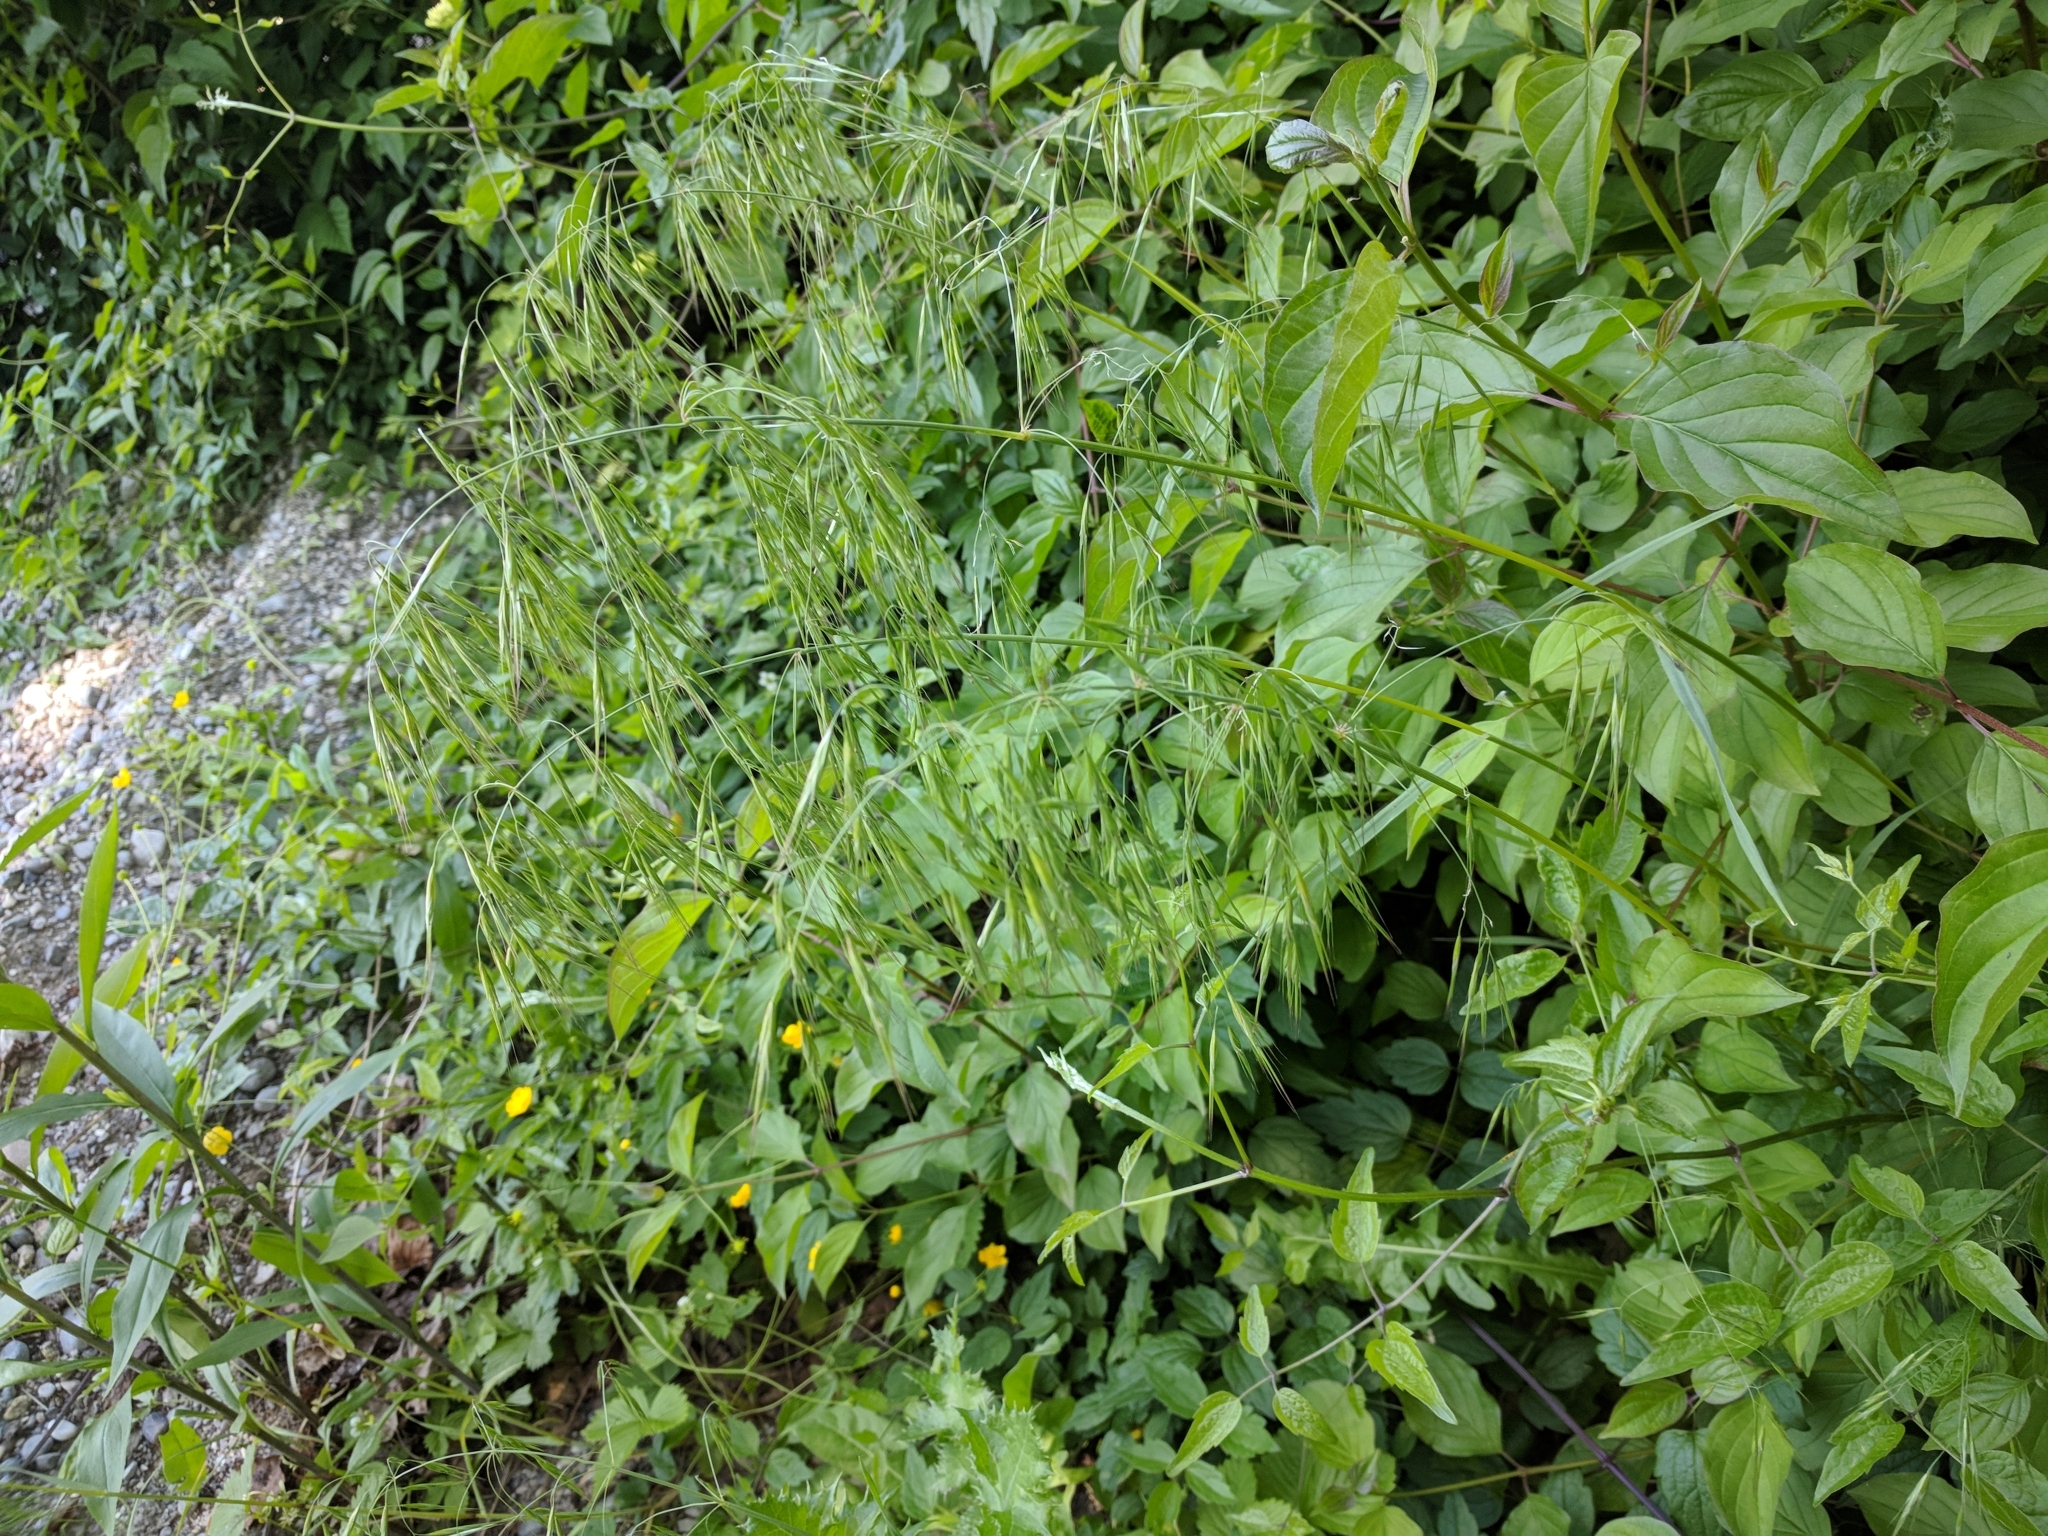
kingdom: Plantae
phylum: Tracheophyta
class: Liliopsida
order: Poales
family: Poaceae
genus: Bromus
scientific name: Bromus sterilis
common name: Poverty brome
